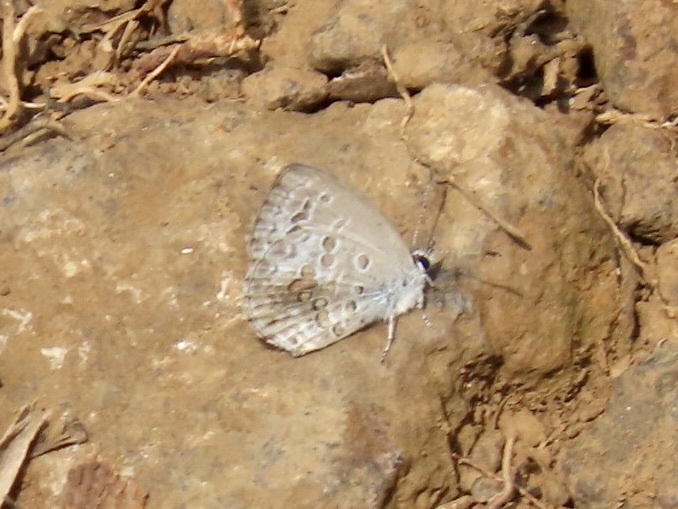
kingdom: Animalia
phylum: Arthropoda
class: Insecta
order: Lepidoptera
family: Lycaenidae
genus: Chilades
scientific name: Chilades laius
